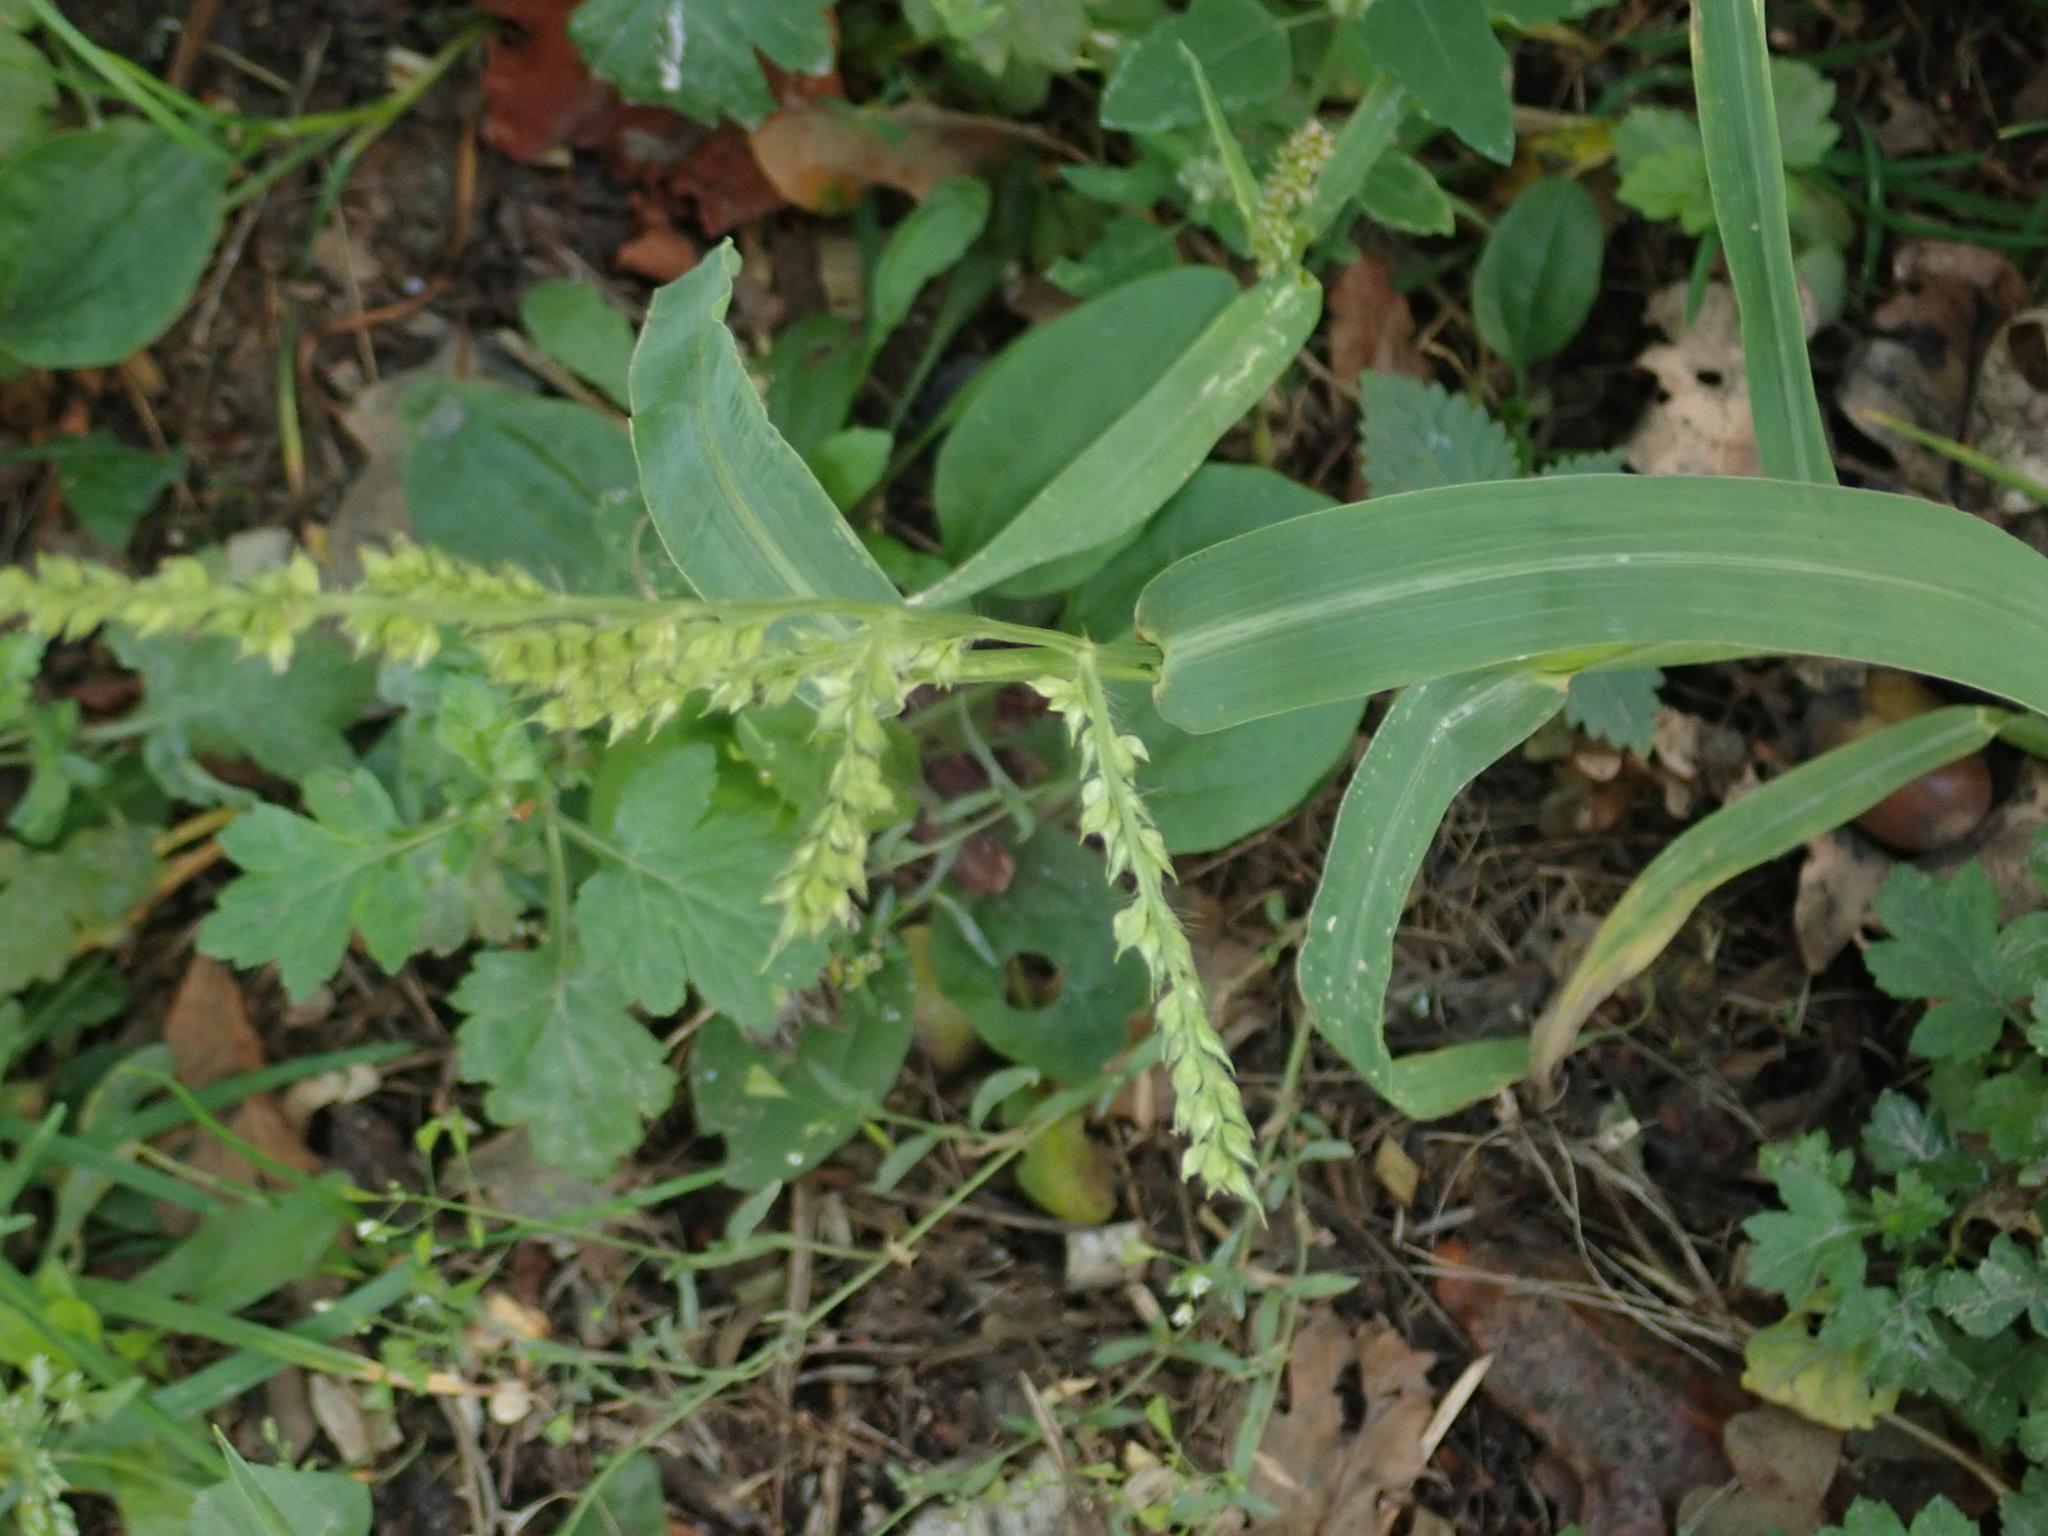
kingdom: Plantae
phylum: Tracheophyta
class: Liliopsida
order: Poales
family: Poaceae
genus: Echinochloa
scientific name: Echinochloa crus-galli
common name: Cockspur
